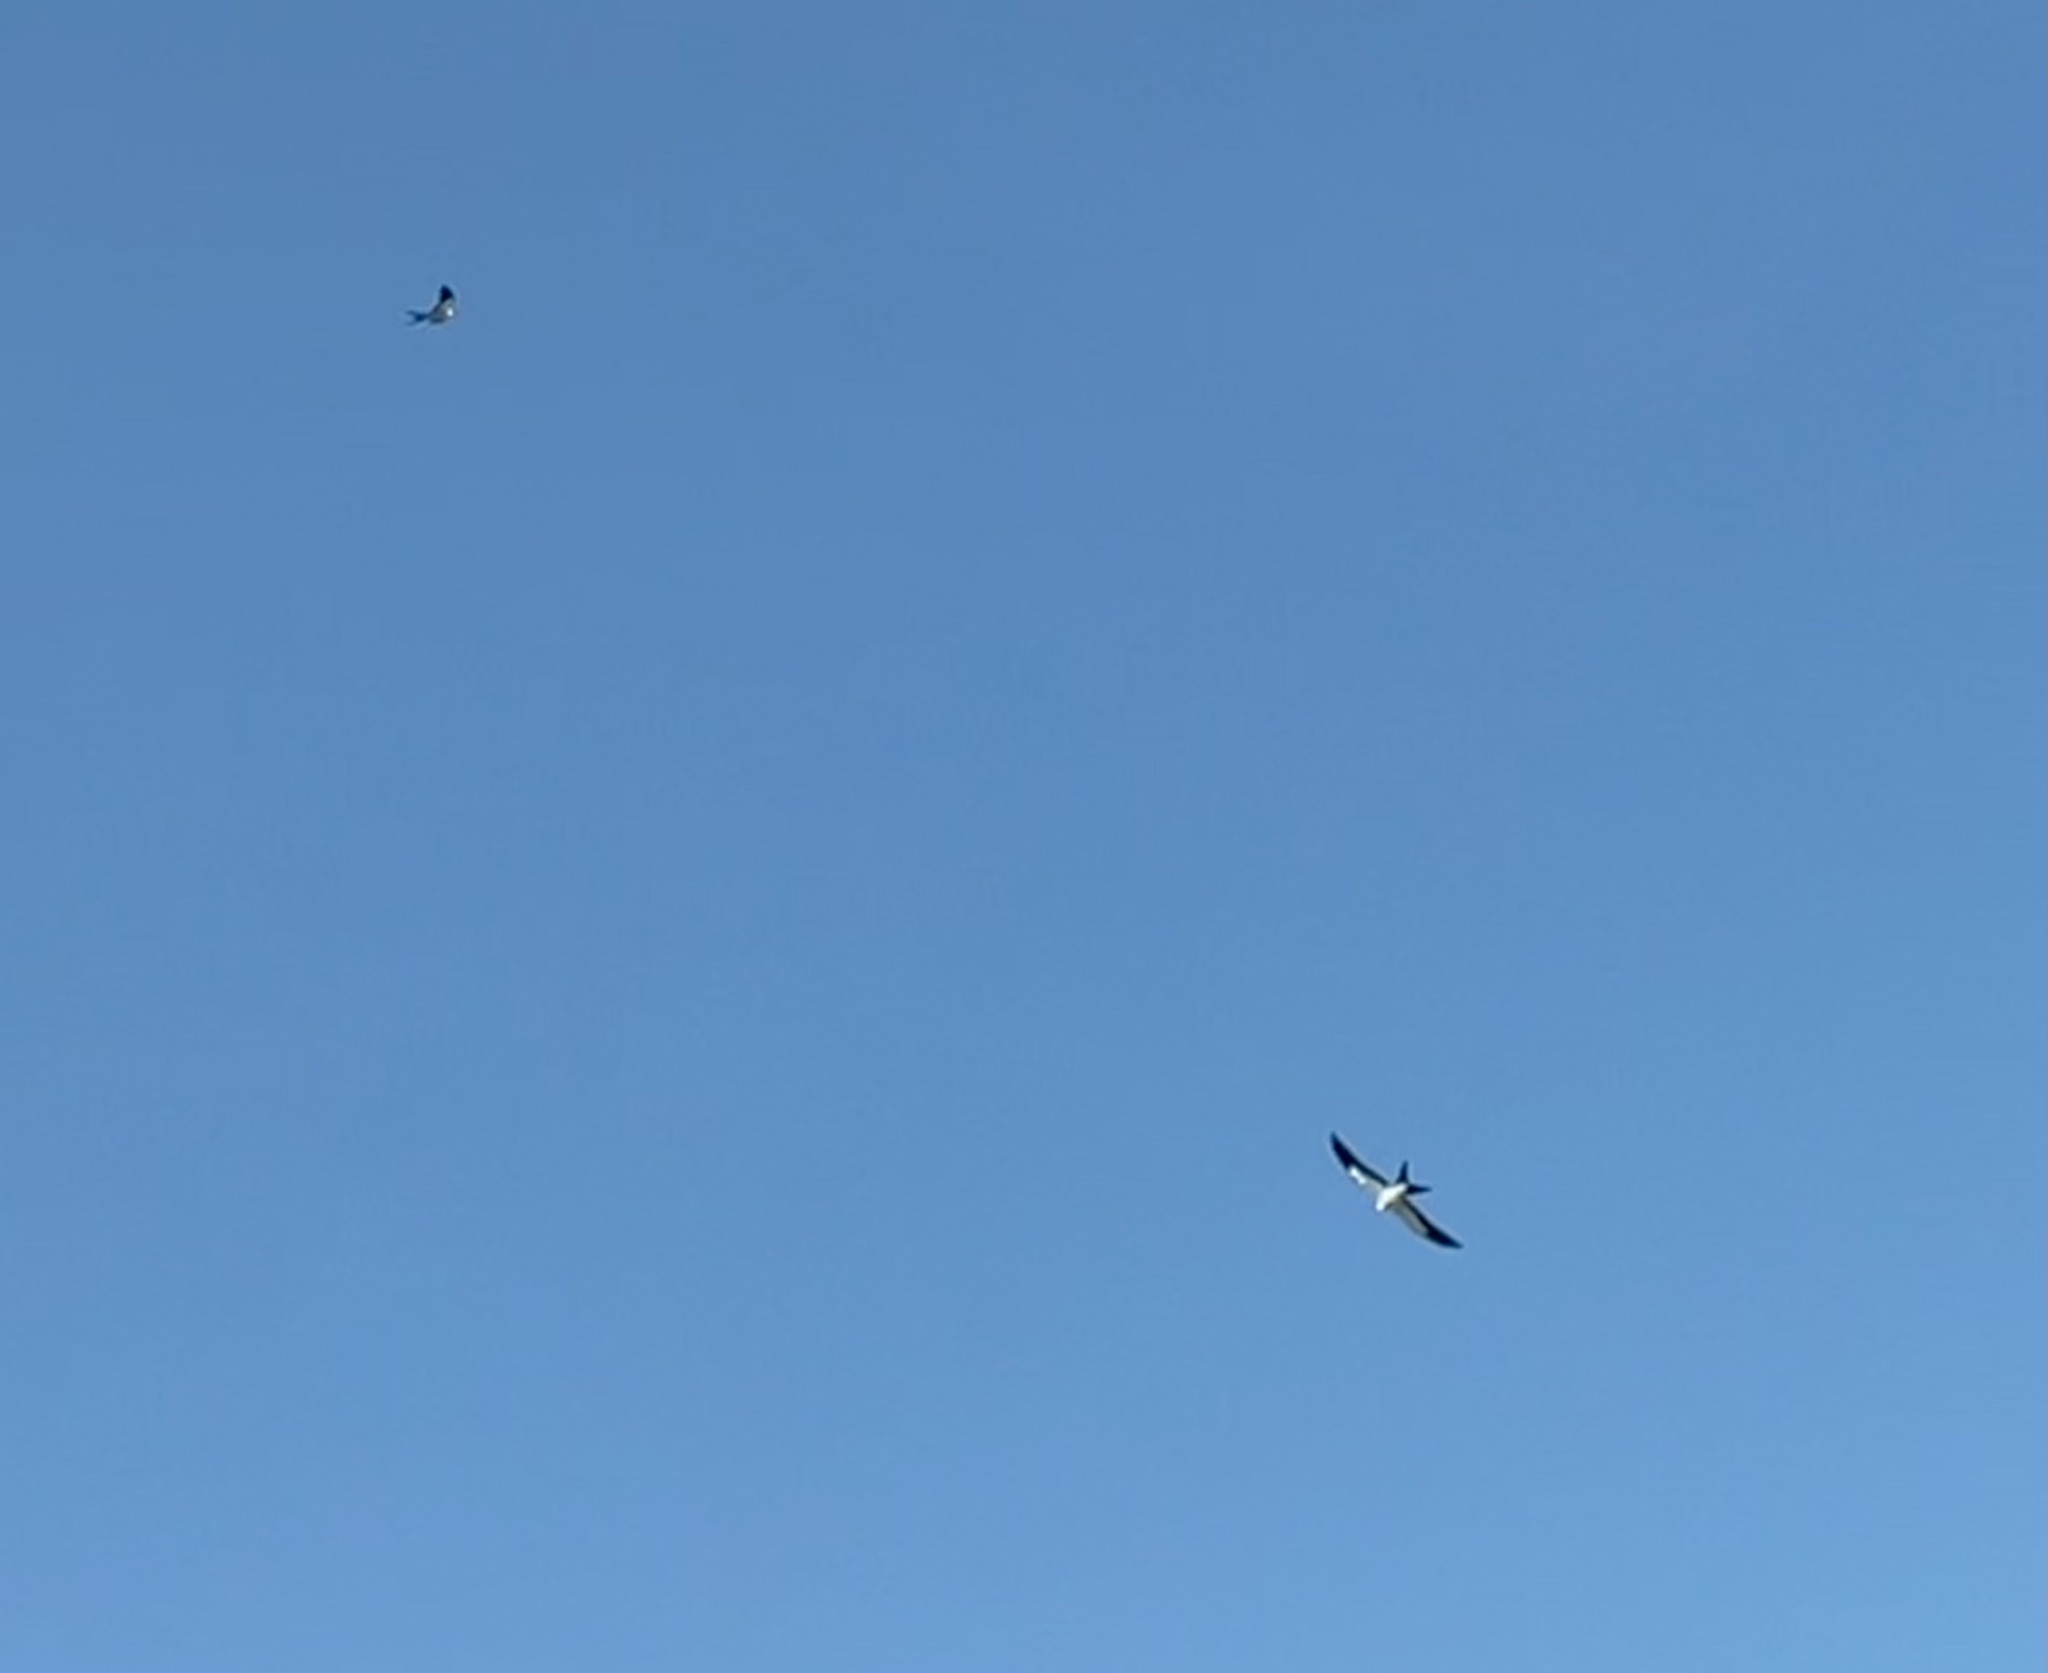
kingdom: Animalia
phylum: Chordata
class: Aves
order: Accipitriformes
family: Accipitridae
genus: Elanoides
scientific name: Elanoides forficatus
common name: Swallow-tailed kite
